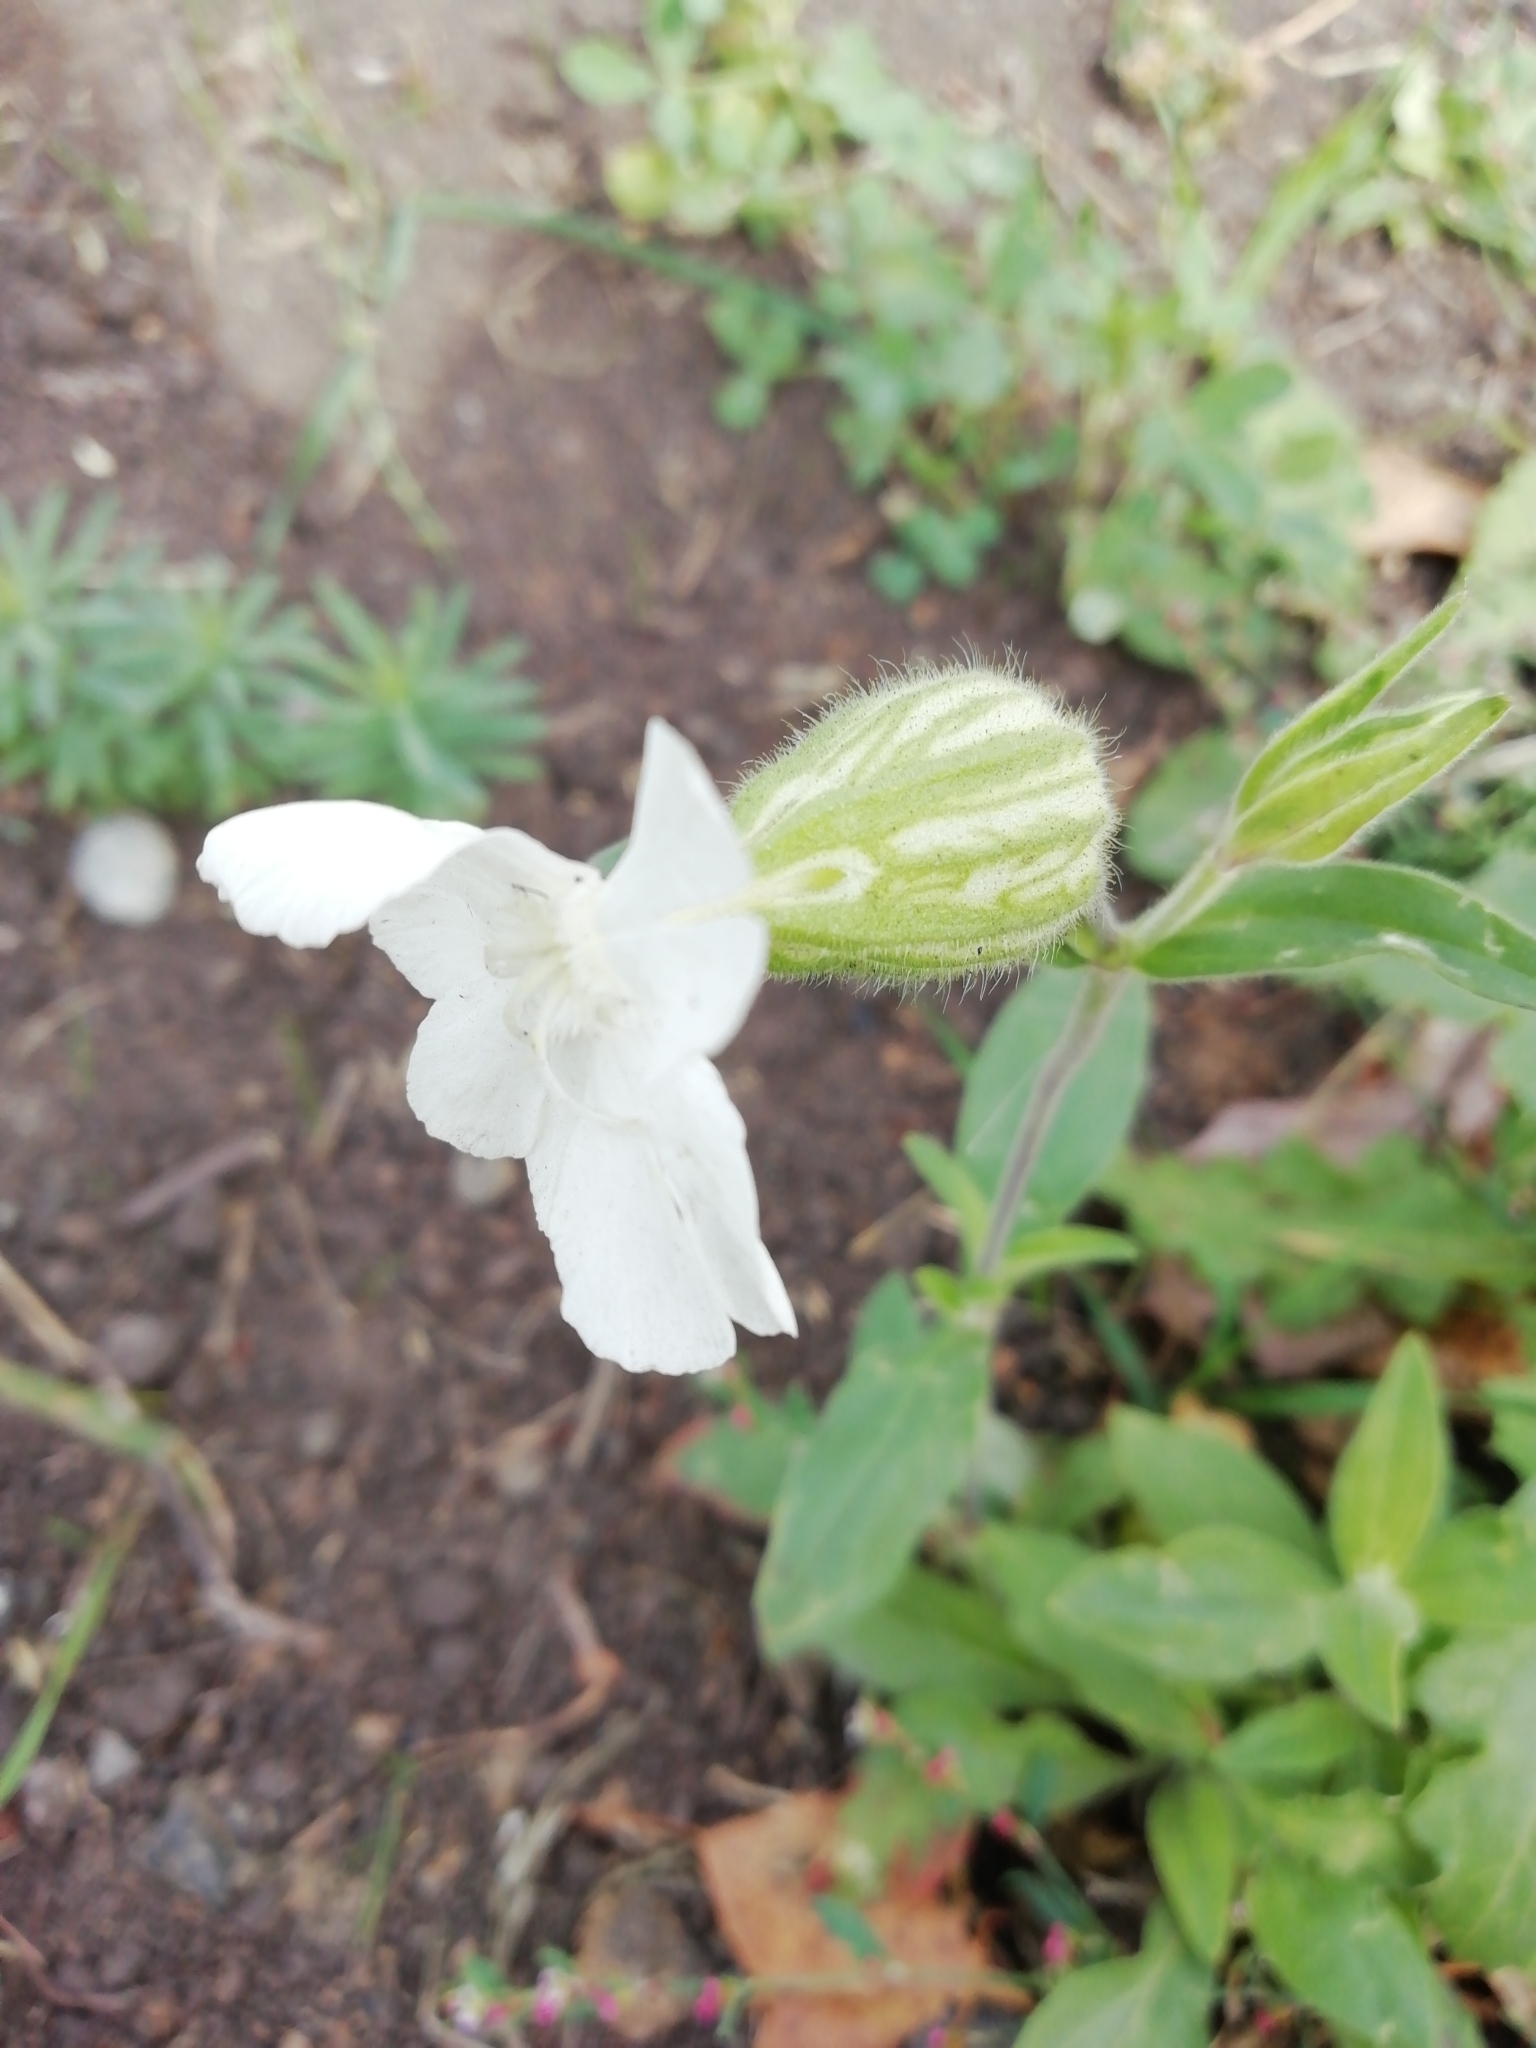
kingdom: Plantae
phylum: Tracheophyta
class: Magnoliopsida
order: Caryophyllales
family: Caryophyllaceae
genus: Silene
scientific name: Silene latifolia
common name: White campion
